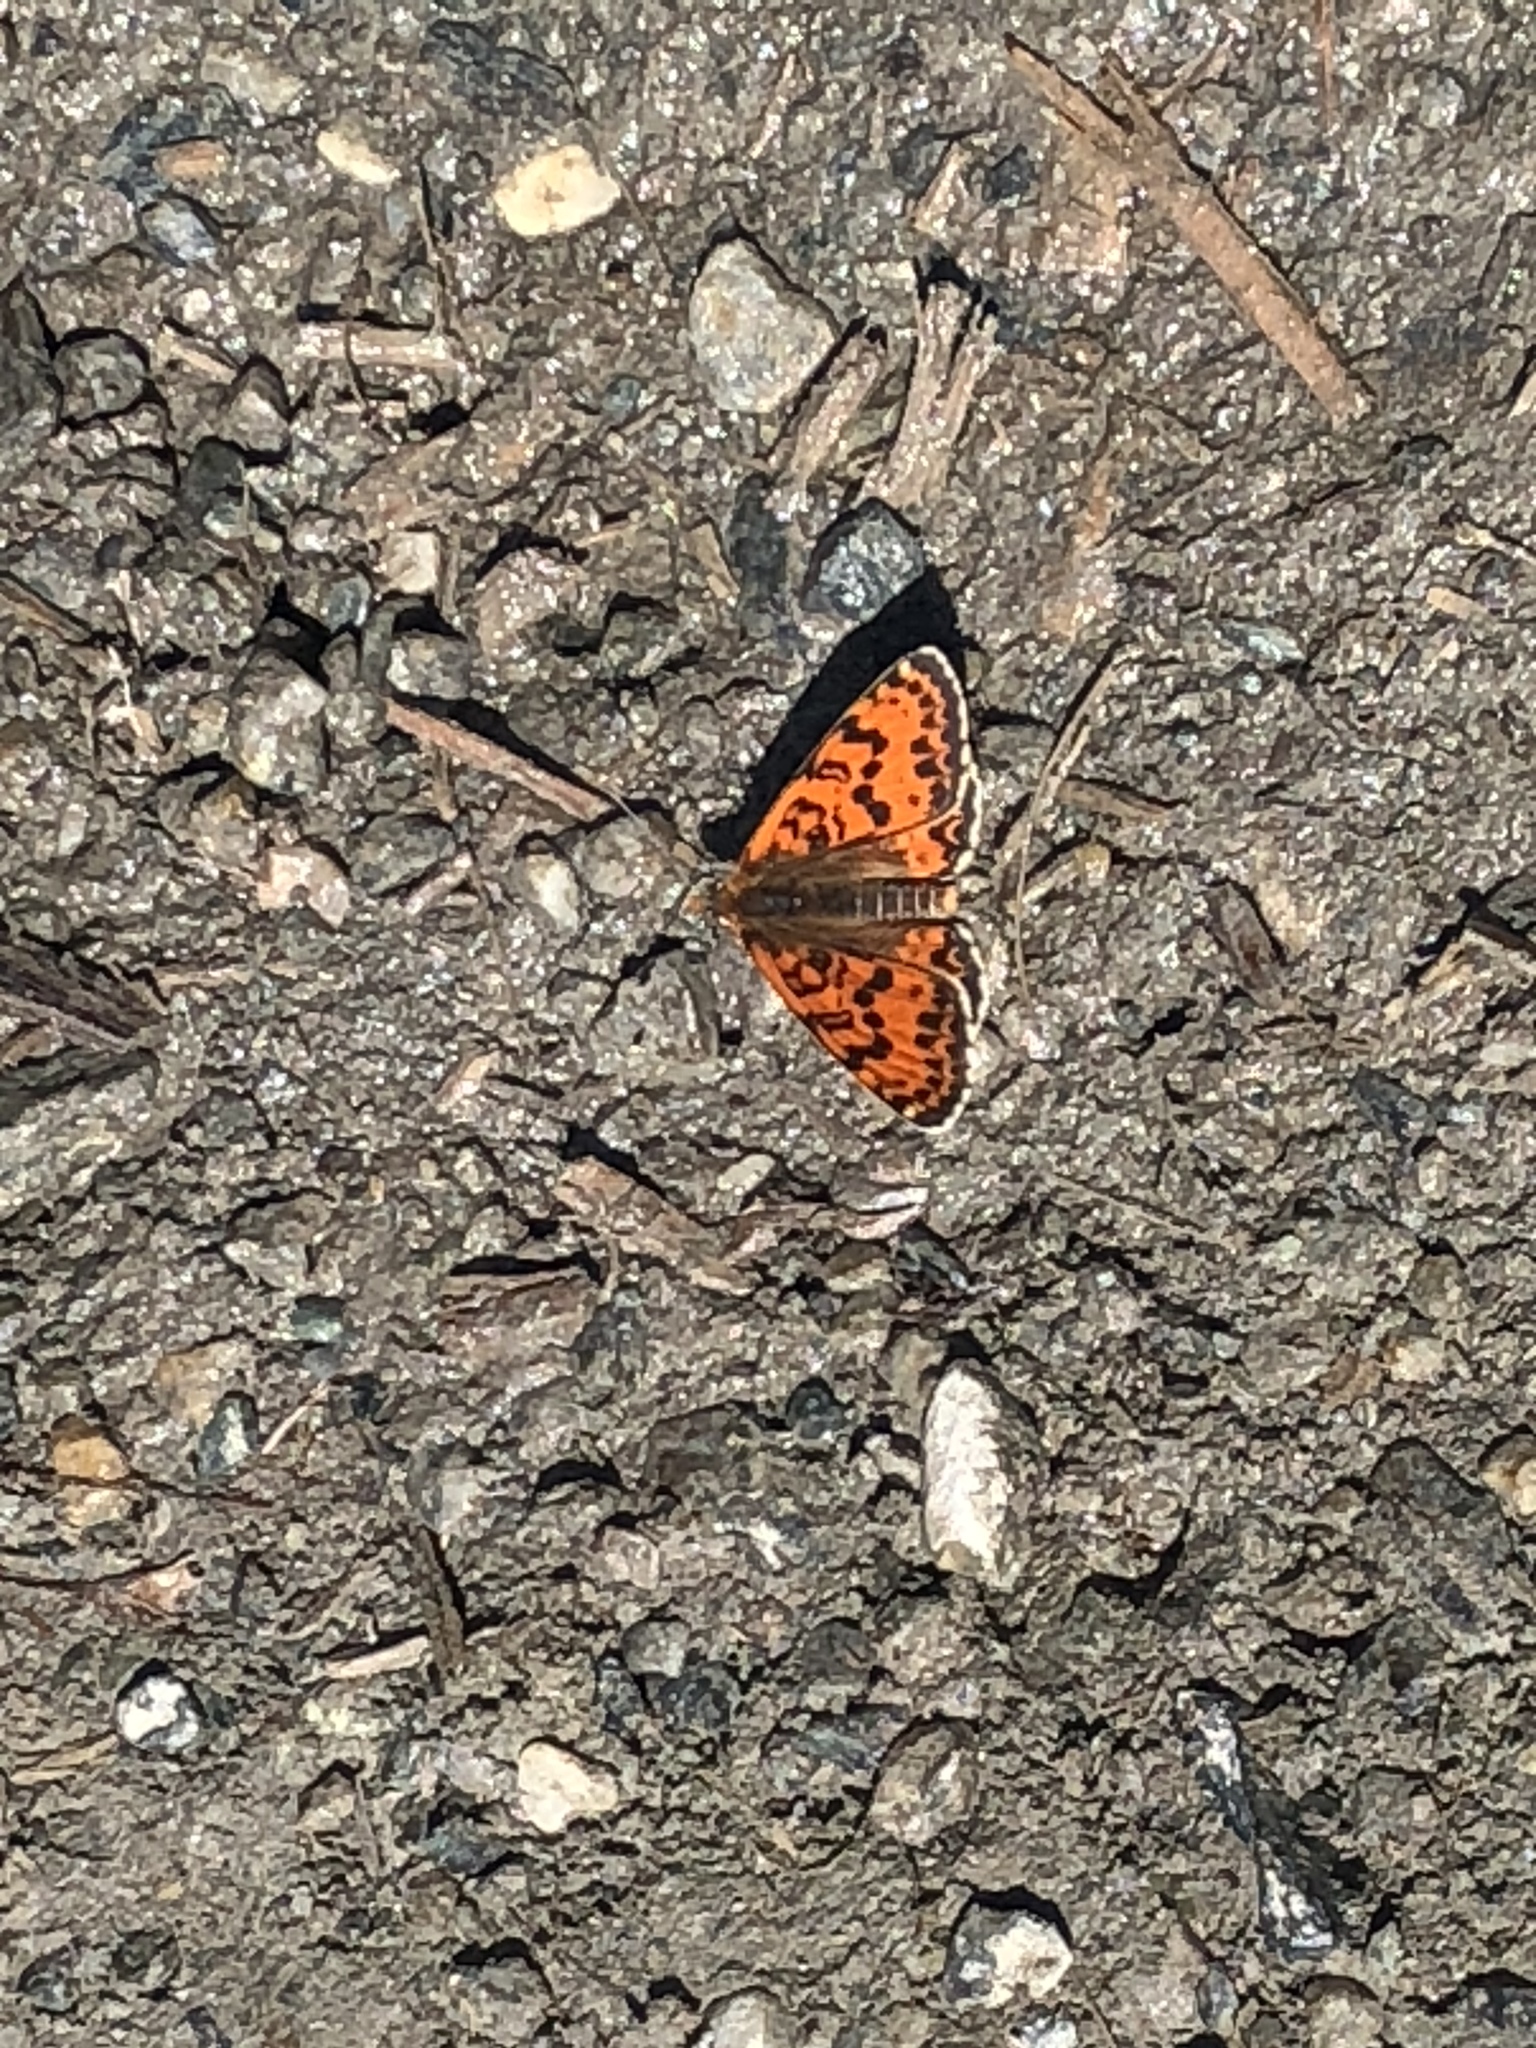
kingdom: Animalia
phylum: Arthropoda
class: Insecta
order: Lepidoptera
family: Nymphalidae
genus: Melitaea
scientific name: Melitaea didyma
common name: Spotted fritillary
